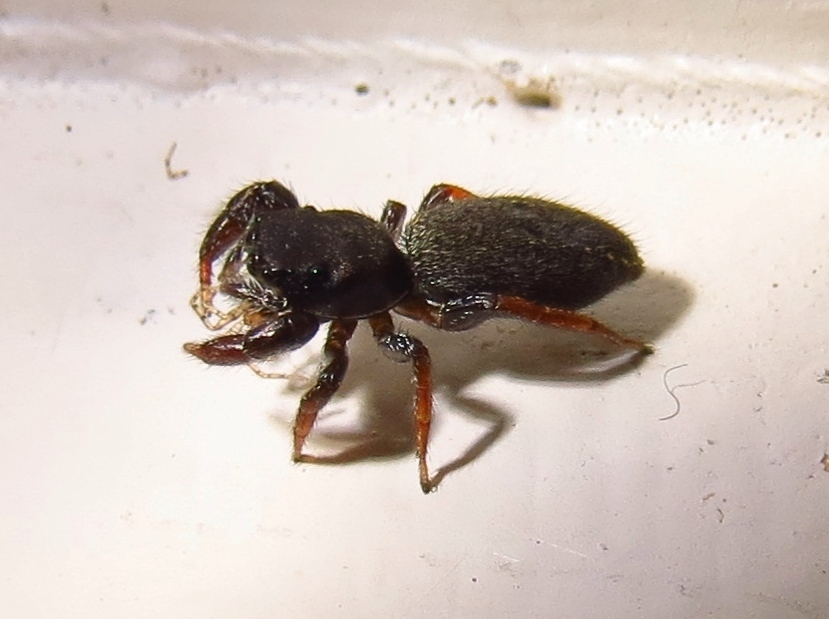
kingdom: Animalia
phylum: Arthropoda
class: Arachnida
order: Araneae
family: Salticidae
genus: Metacyrba
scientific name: Metacyrba taeniola
